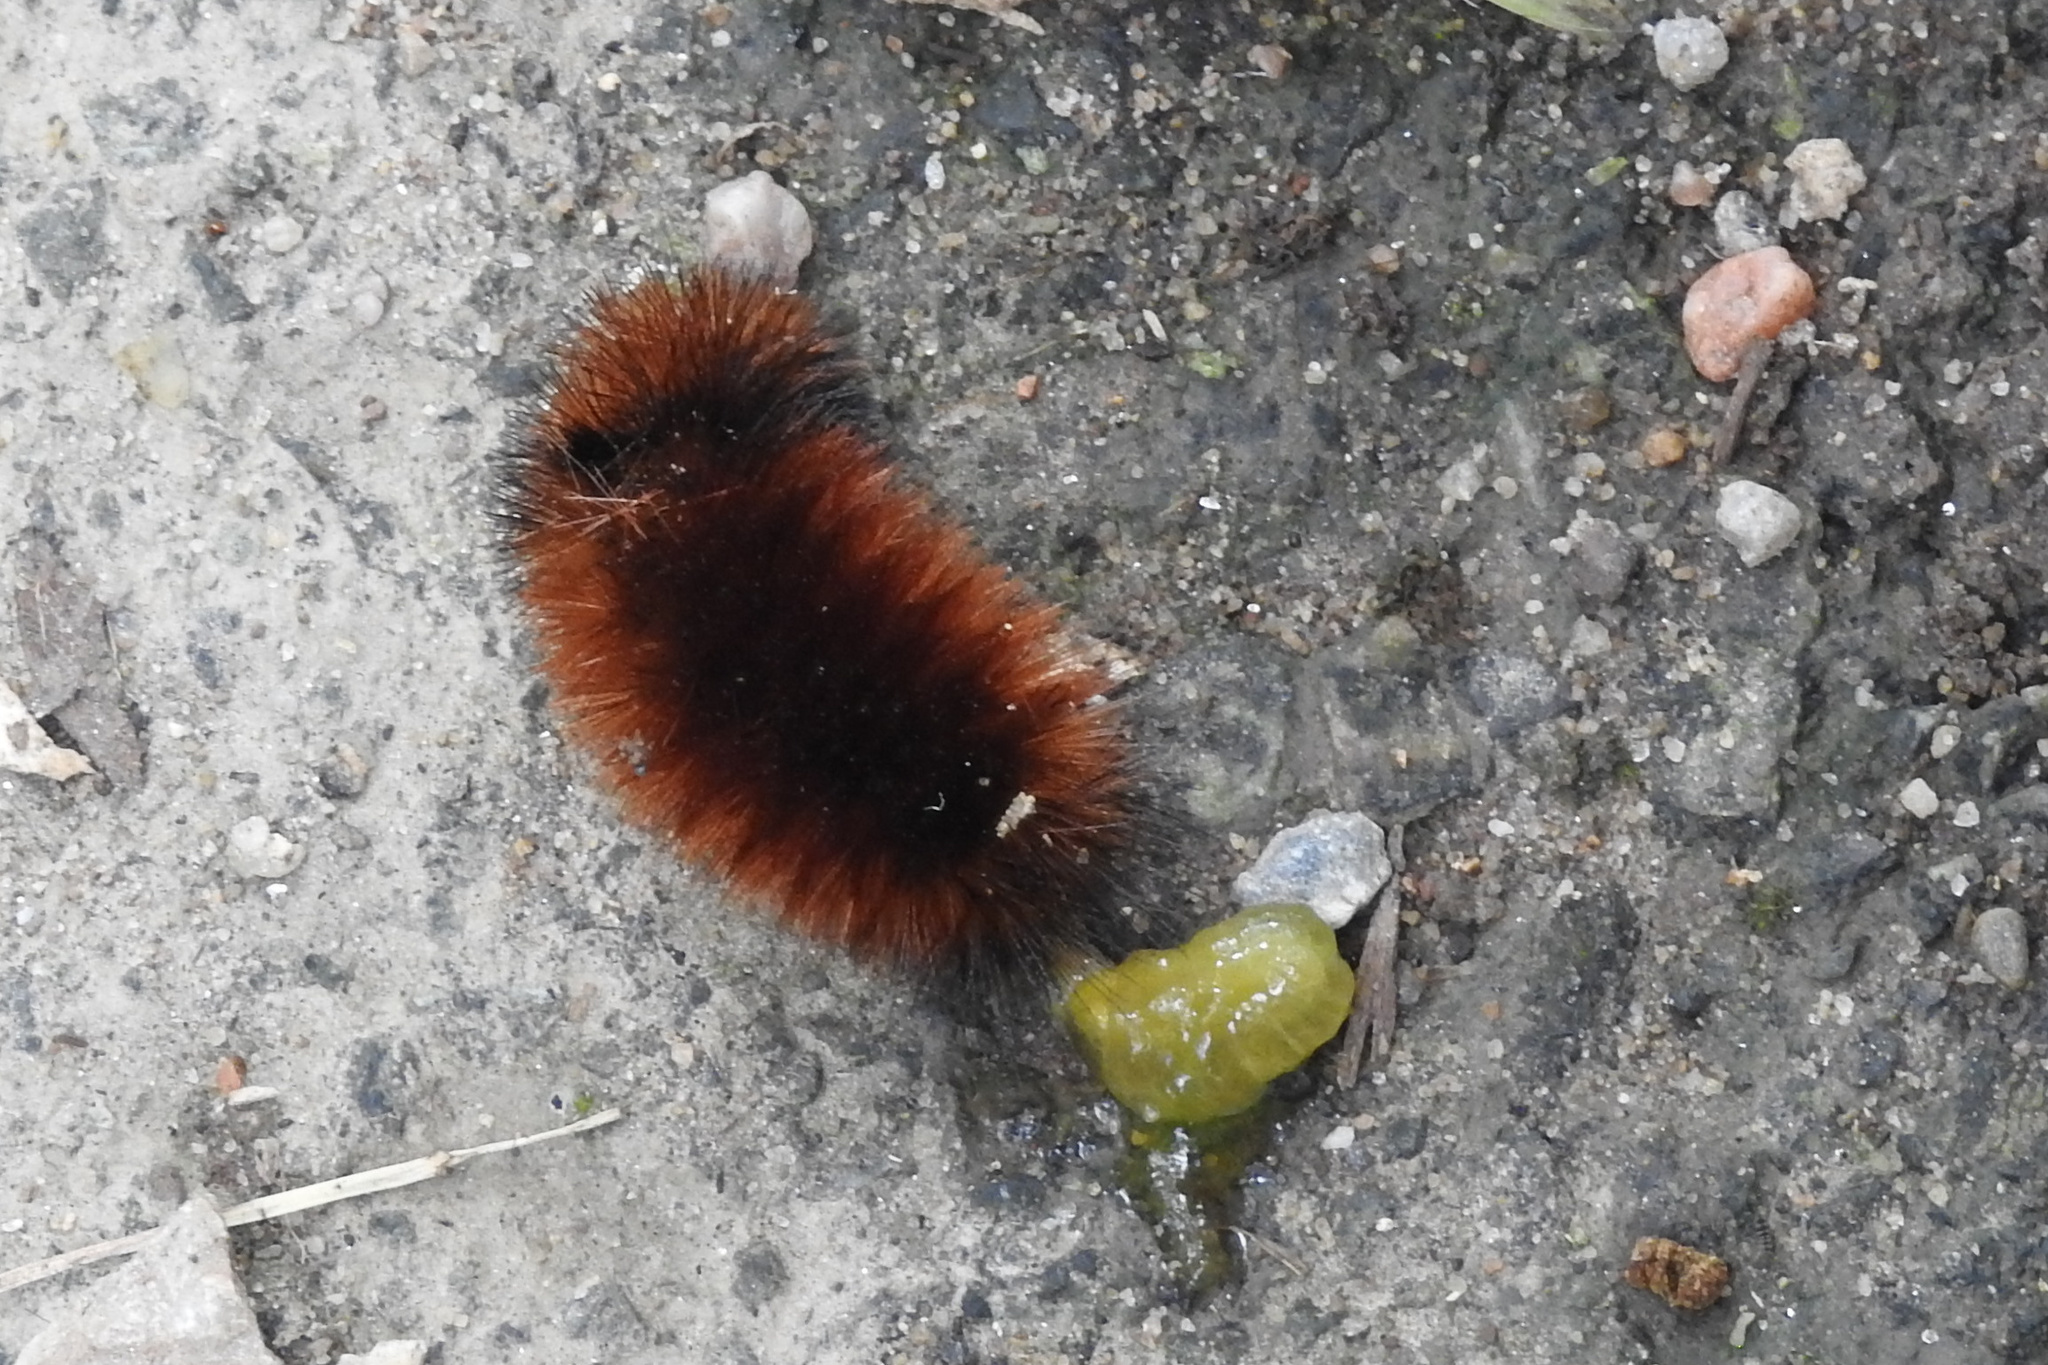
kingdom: Animalia
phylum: Arthropoda
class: Insecta
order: Lepidoptera
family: Erebidae
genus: Pyrrharctia
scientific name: Pyrrharctia isabella
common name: Isabella tiger moth
